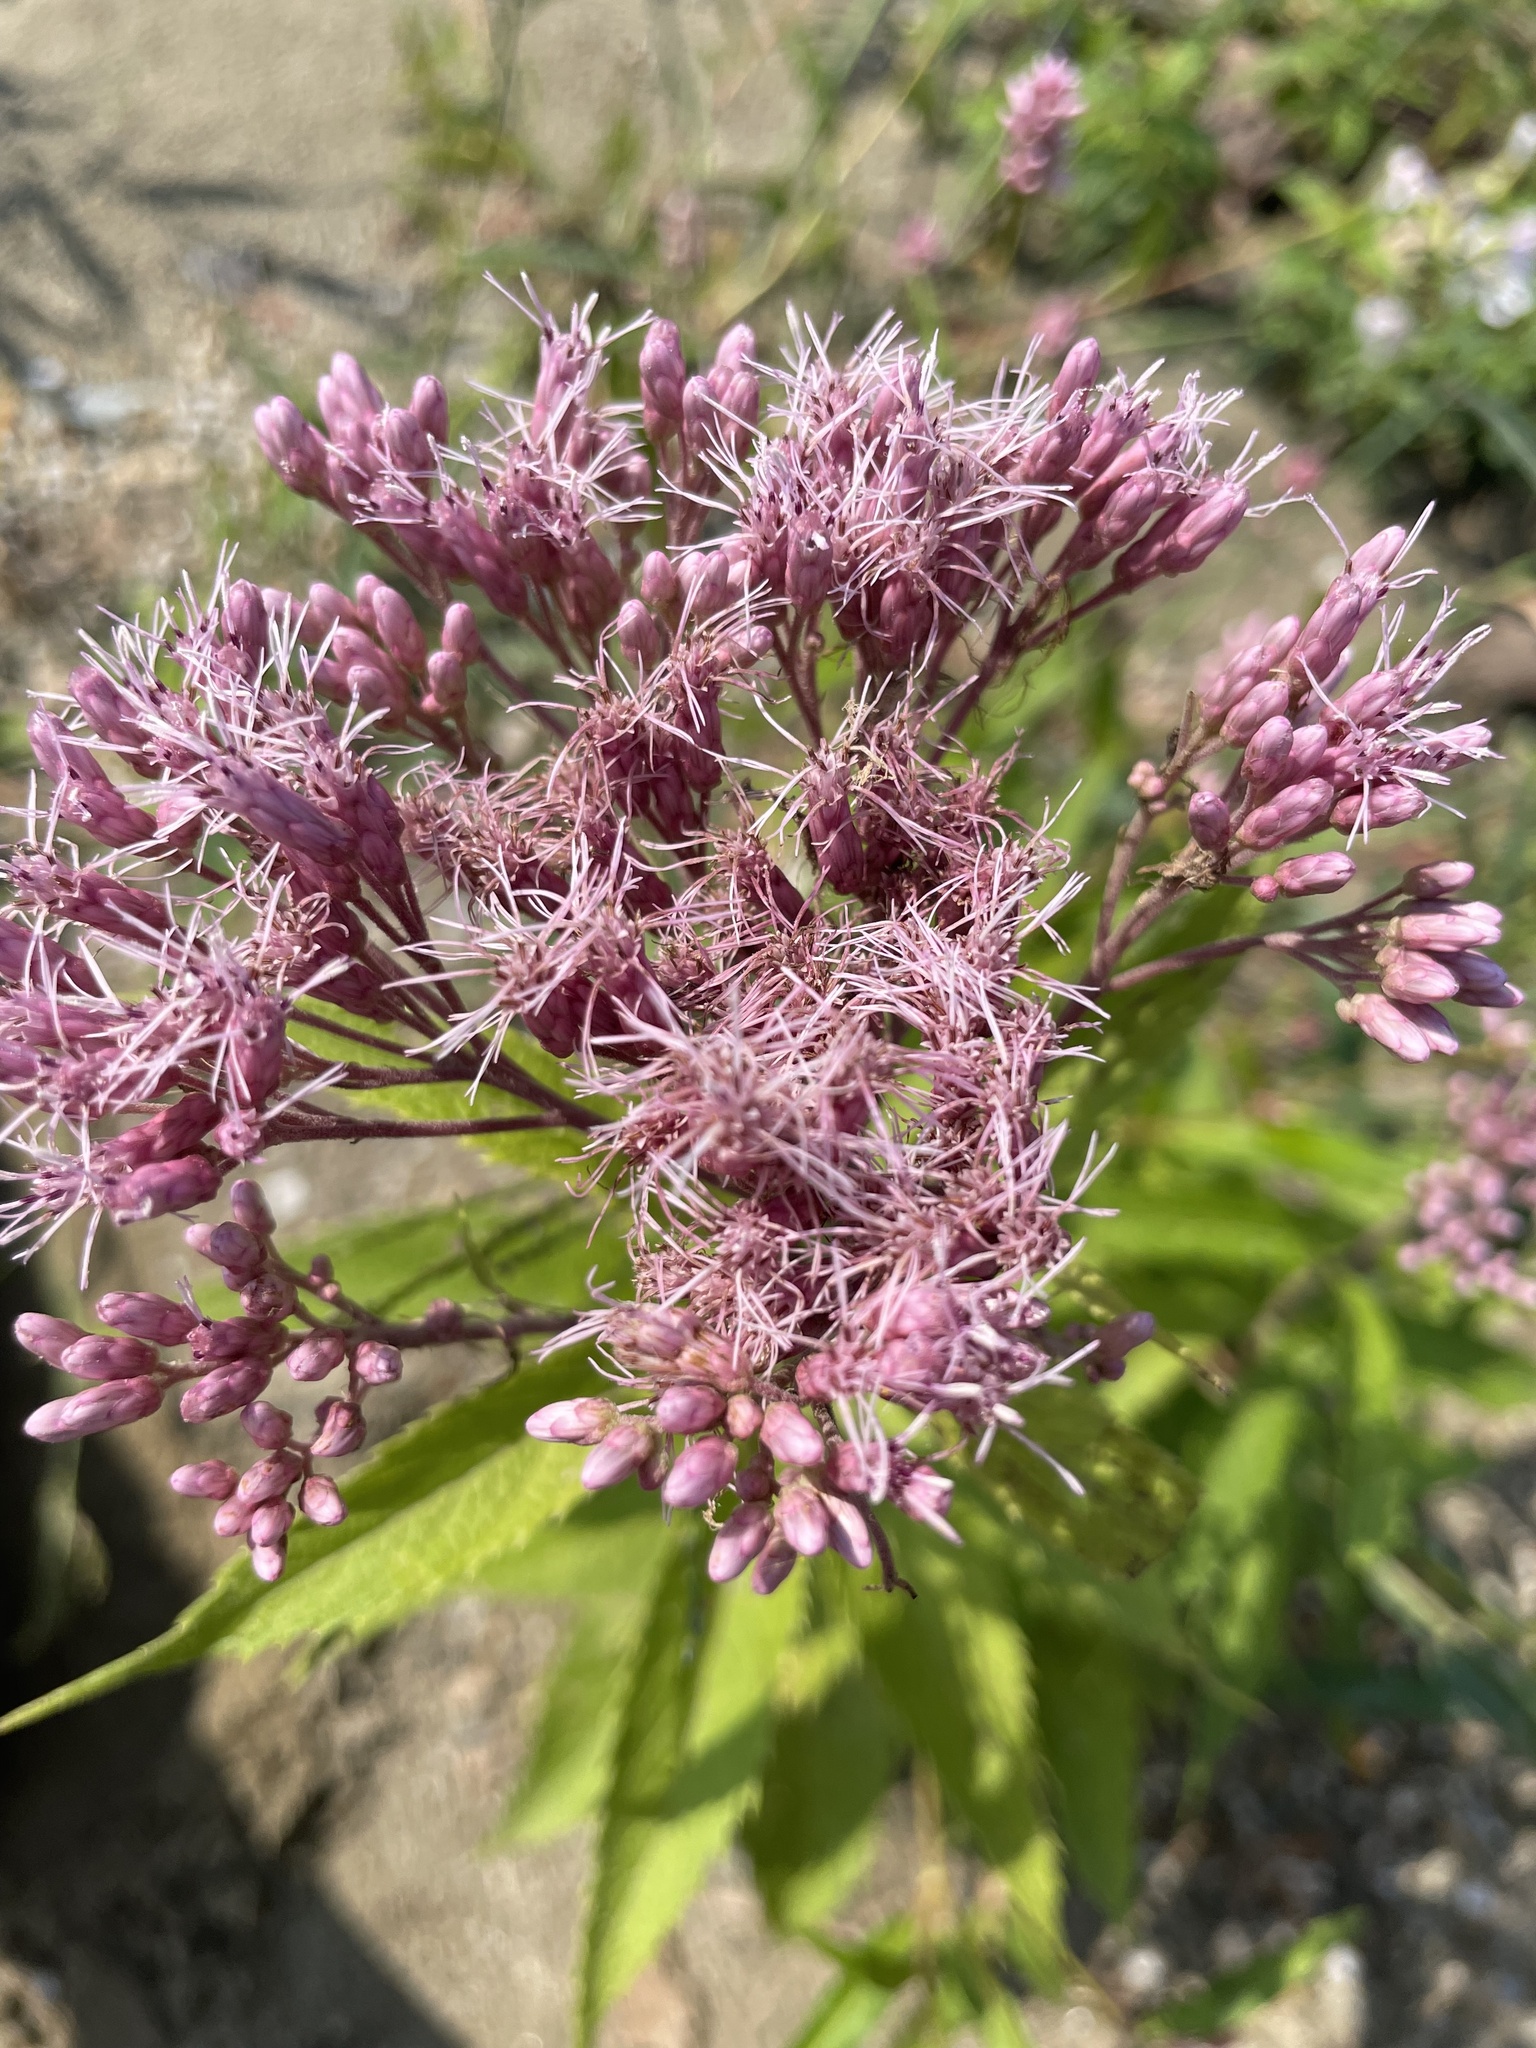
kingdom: Plantae
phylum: Tracheophyta
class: Magnoliopsida
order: Asterales
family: Asteraceae
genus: Eutrochium
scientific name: Eutrochium maculatum
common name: Spotted joe pye weed
